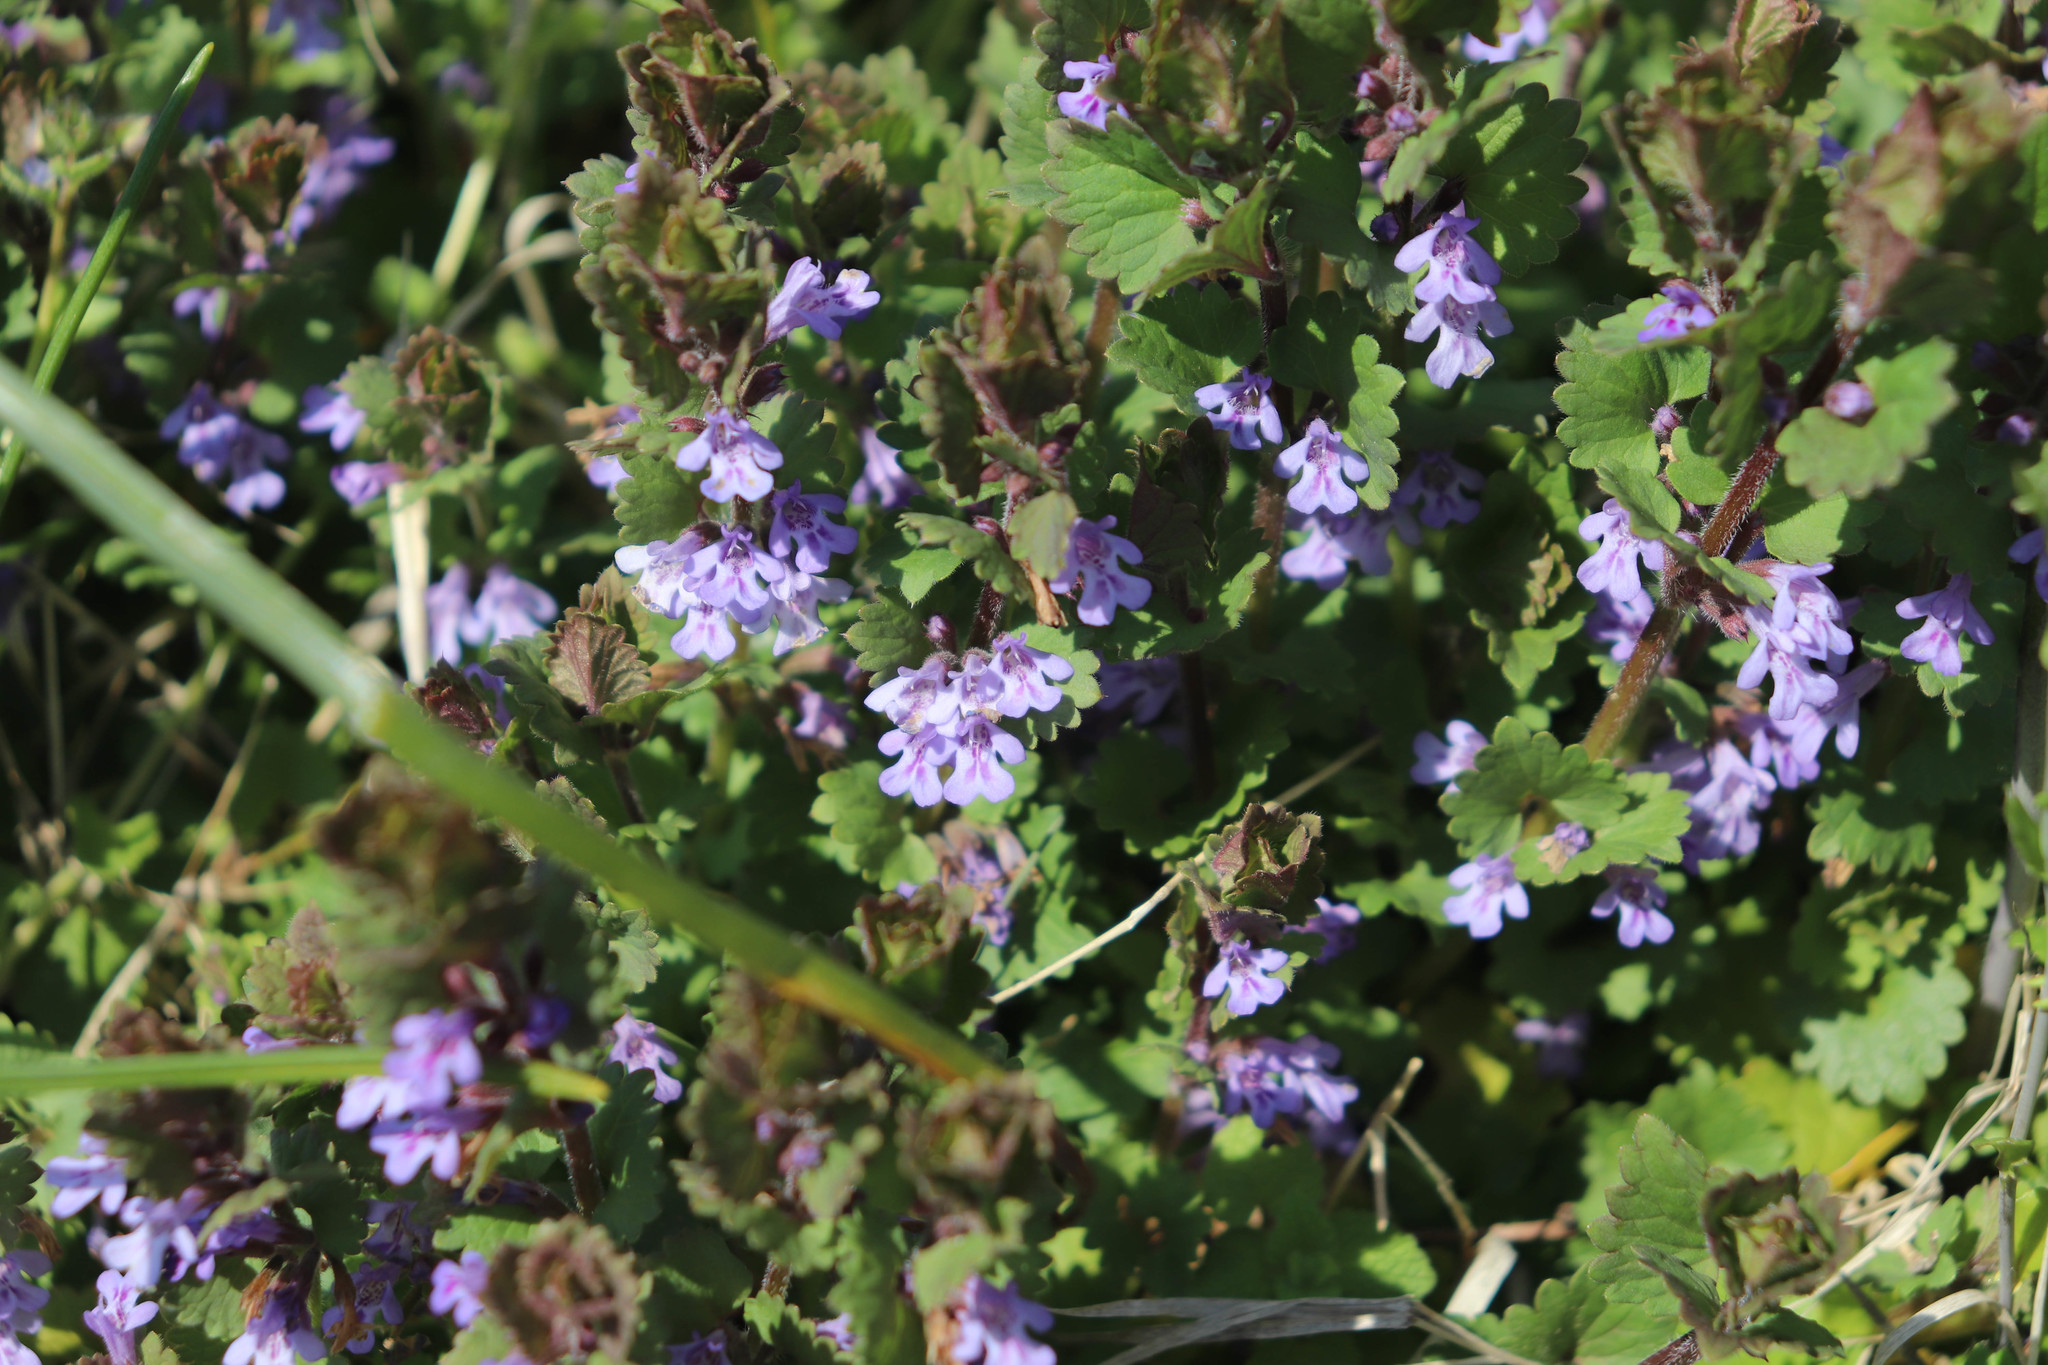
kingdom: Plantae
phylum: Tracheophyta
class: Magnoliopsida
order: Lamiales
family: Lamiaceae
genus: Glechoma
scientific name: Glechoma hederacea
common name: Ground ivy
